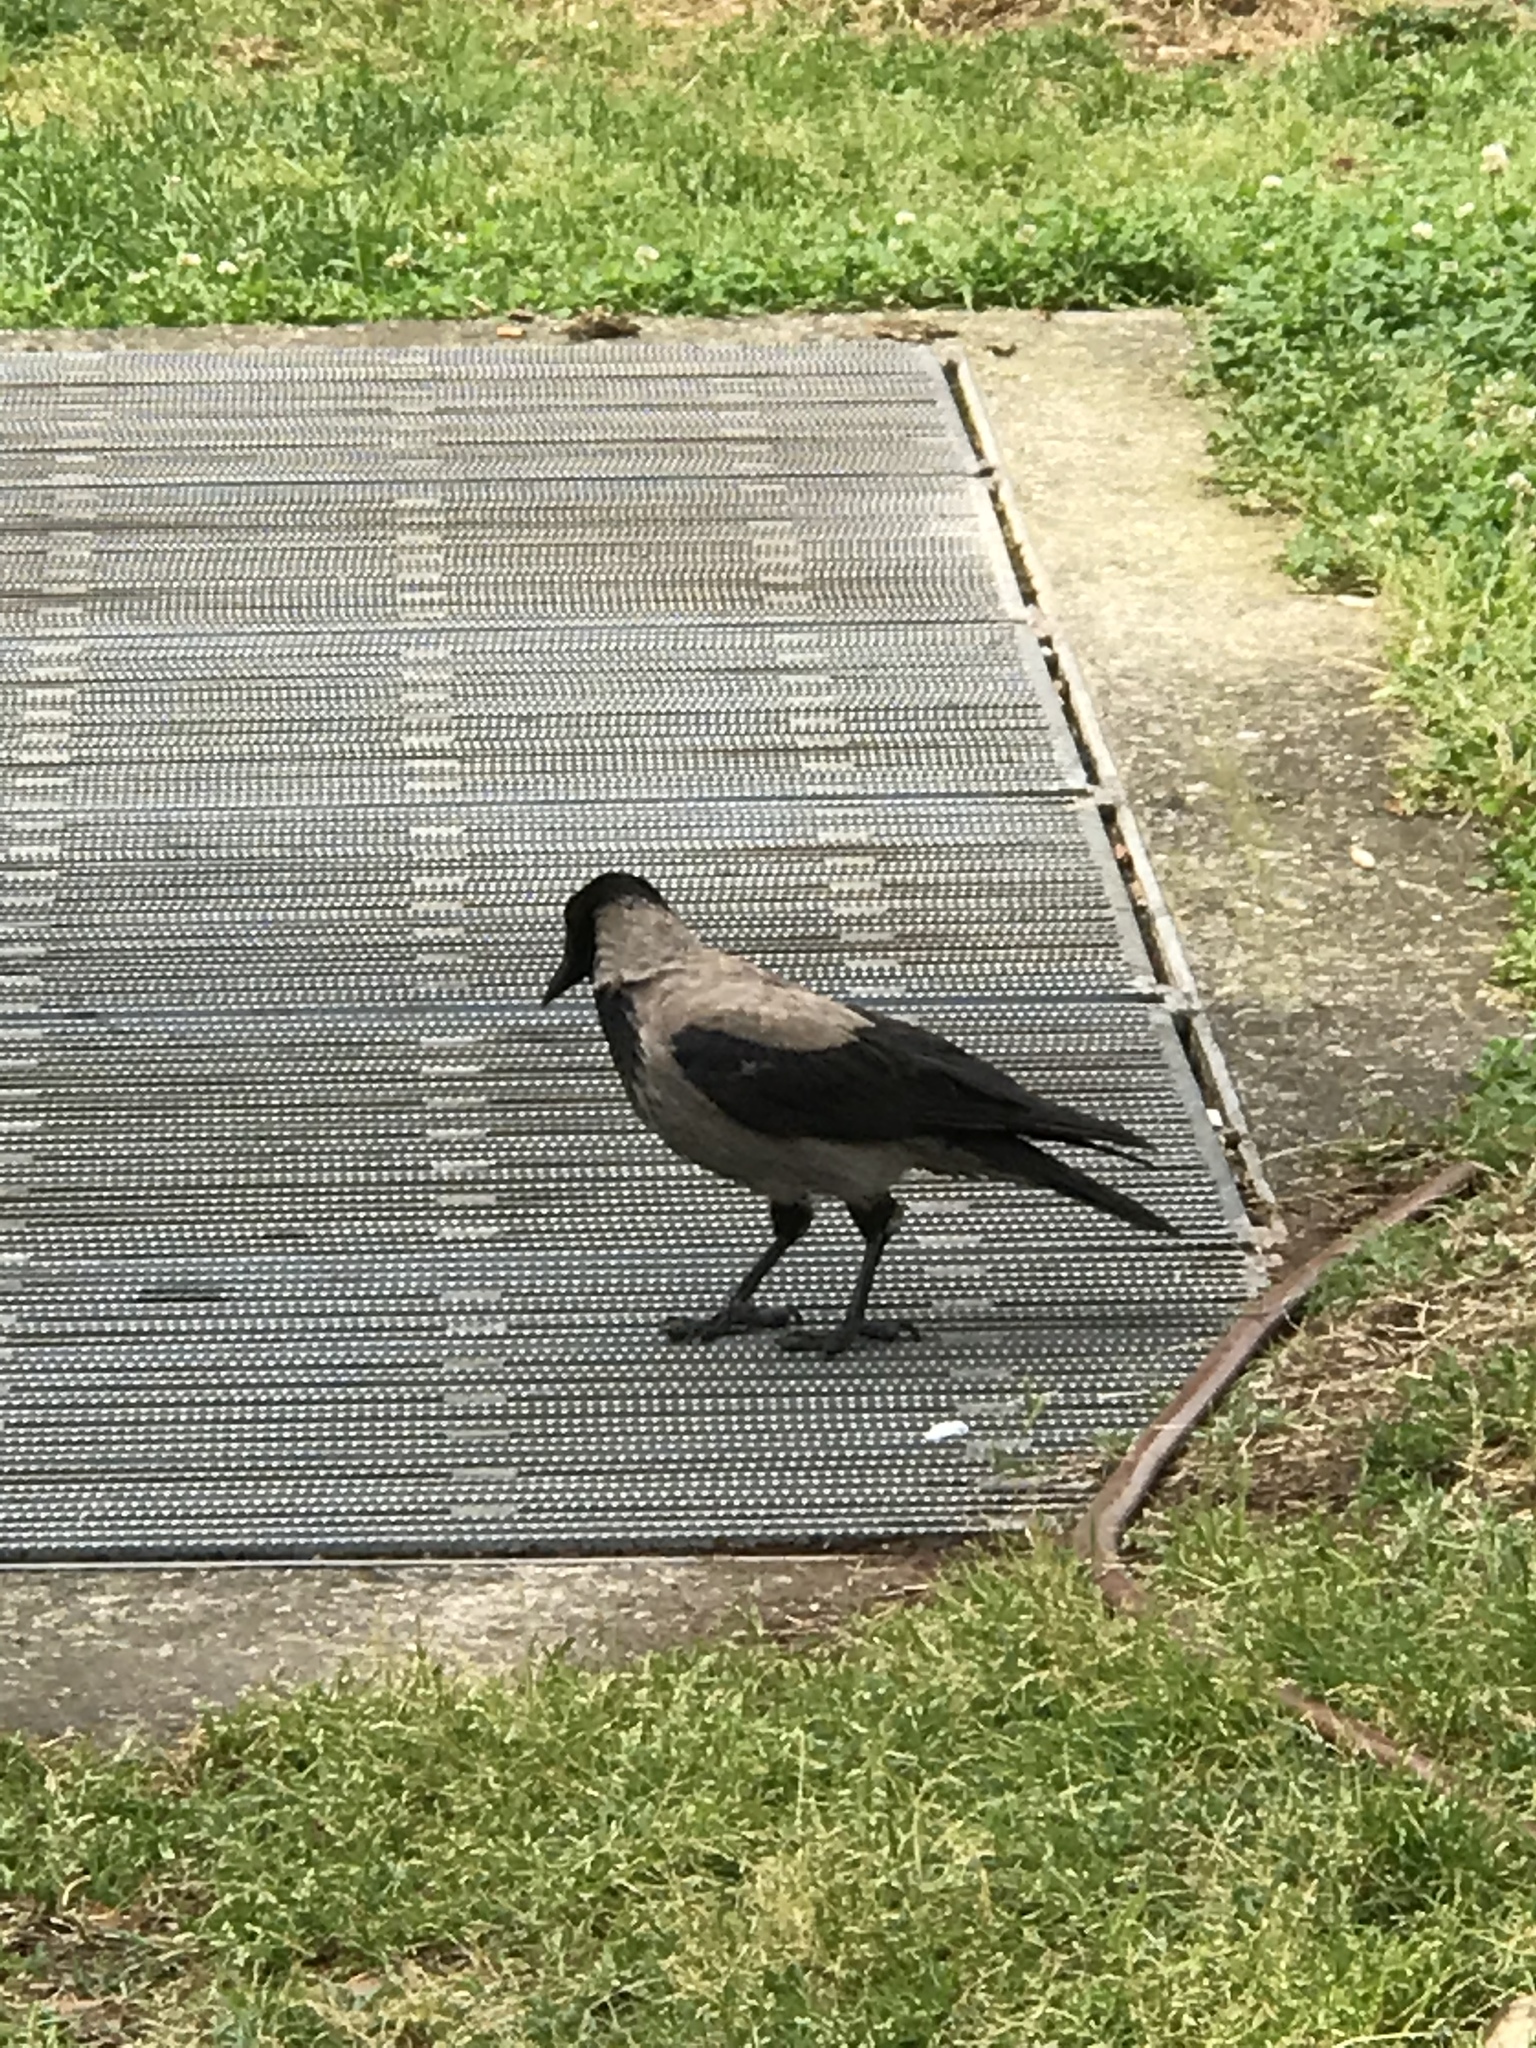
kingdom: Animalia
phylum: Chordata
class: Aves
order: Passeriformes
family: Corvidae
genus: Corvus
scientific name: Corvus cornix
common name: Hooded crow
